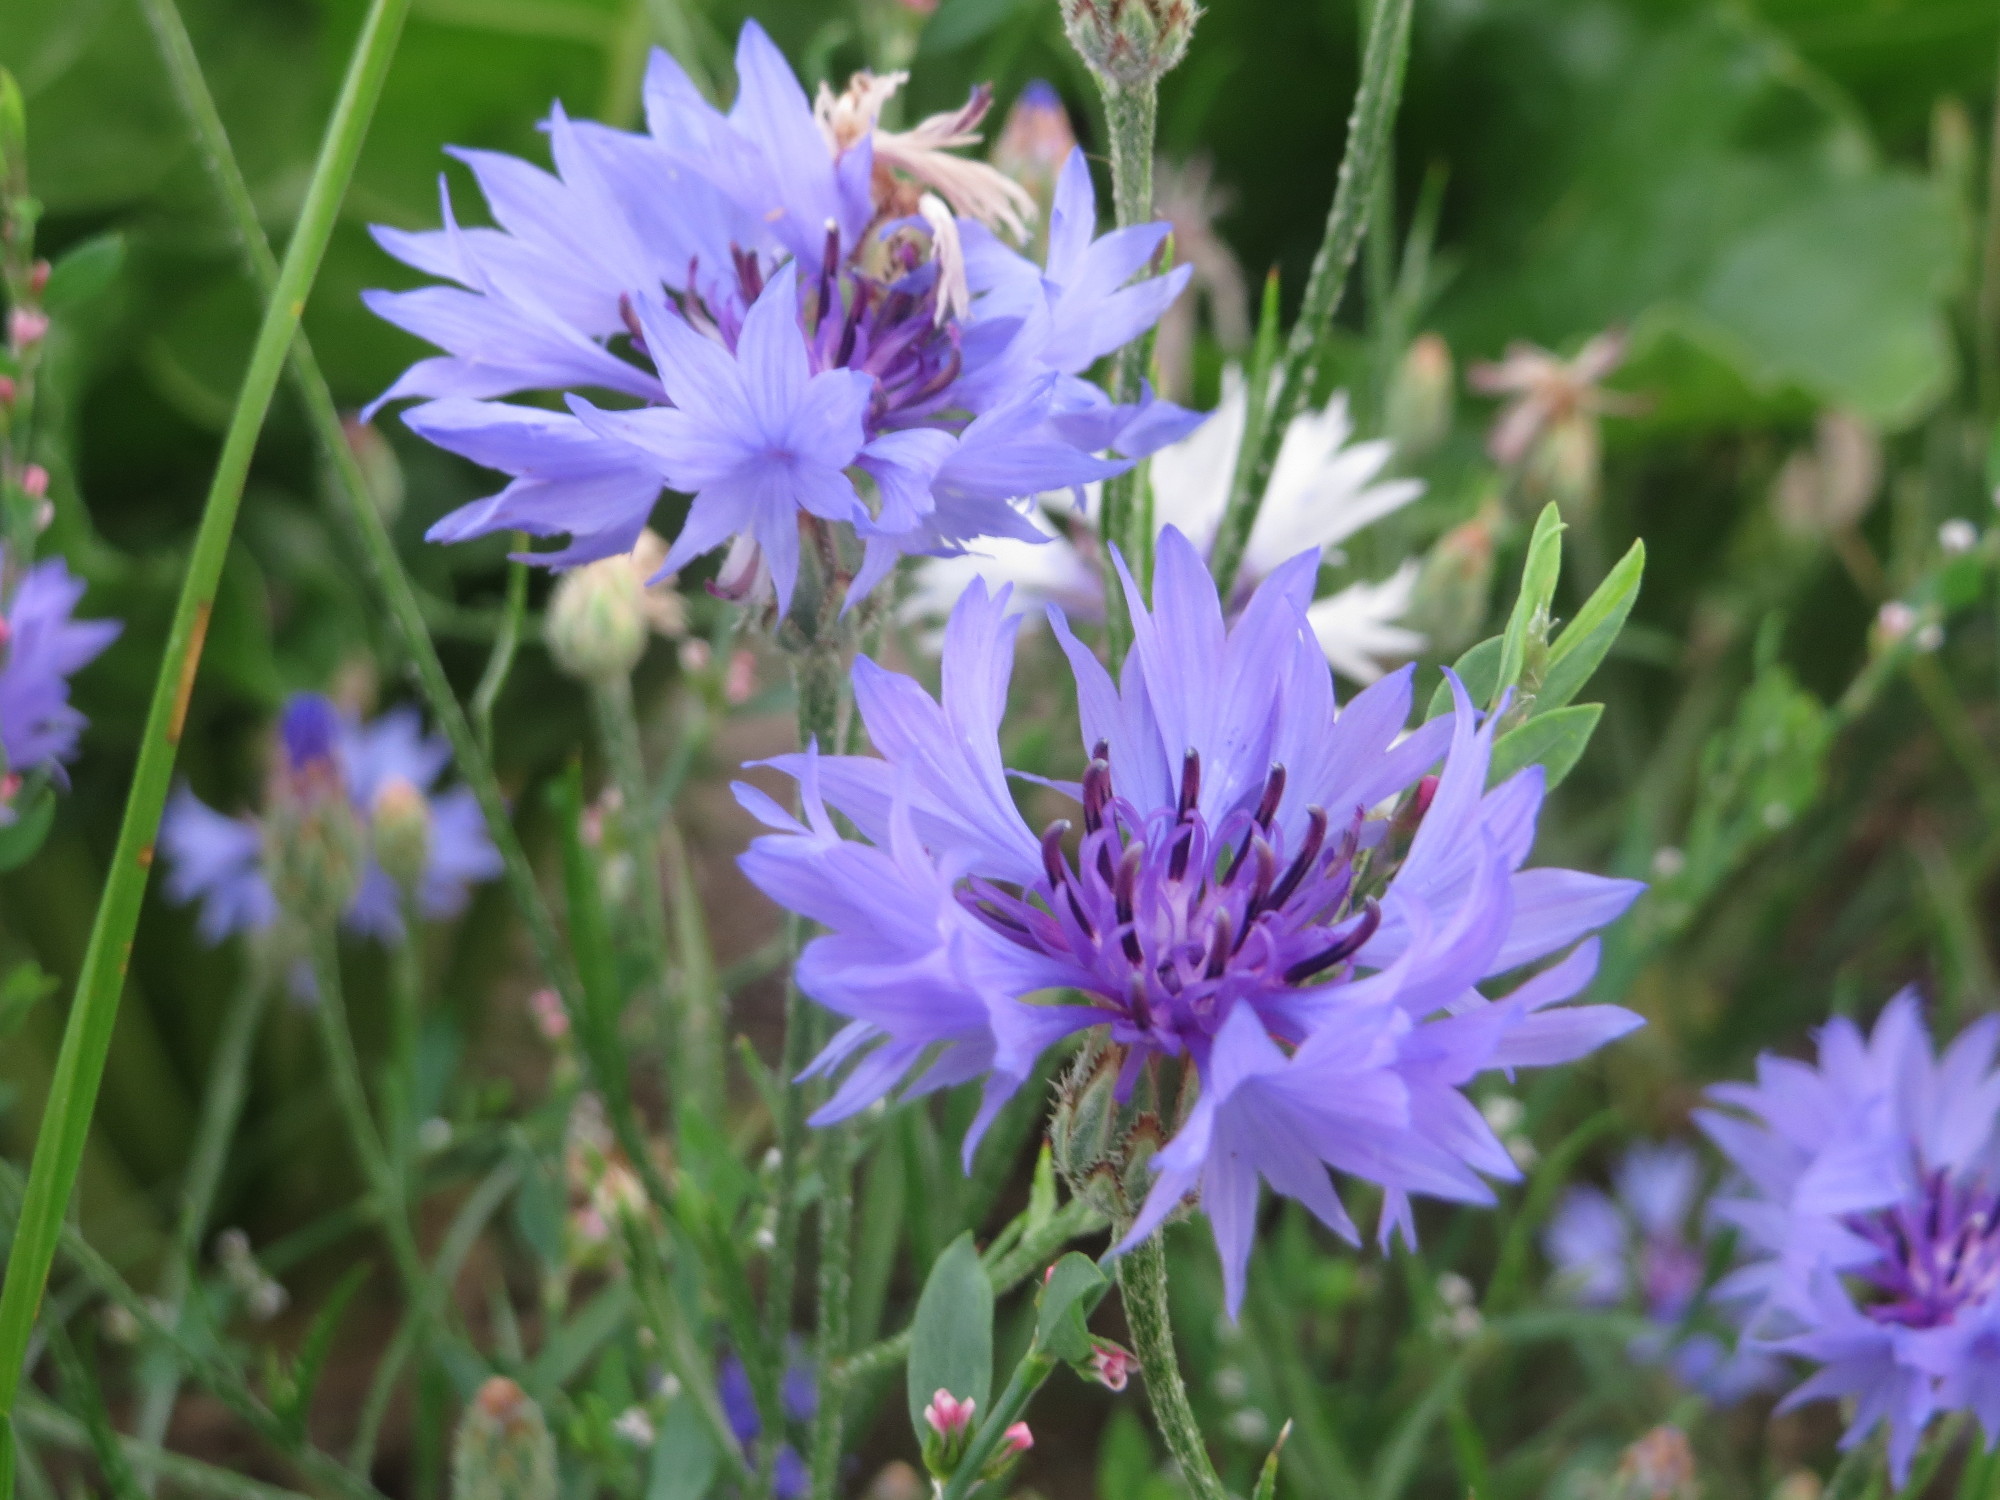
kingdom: Plantae
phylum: Tracheophyta
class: Magnoliopsida
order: Asterales
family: Asteraceae
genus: Centaurea
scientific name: Centaurea cyanus
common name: Cornflower
